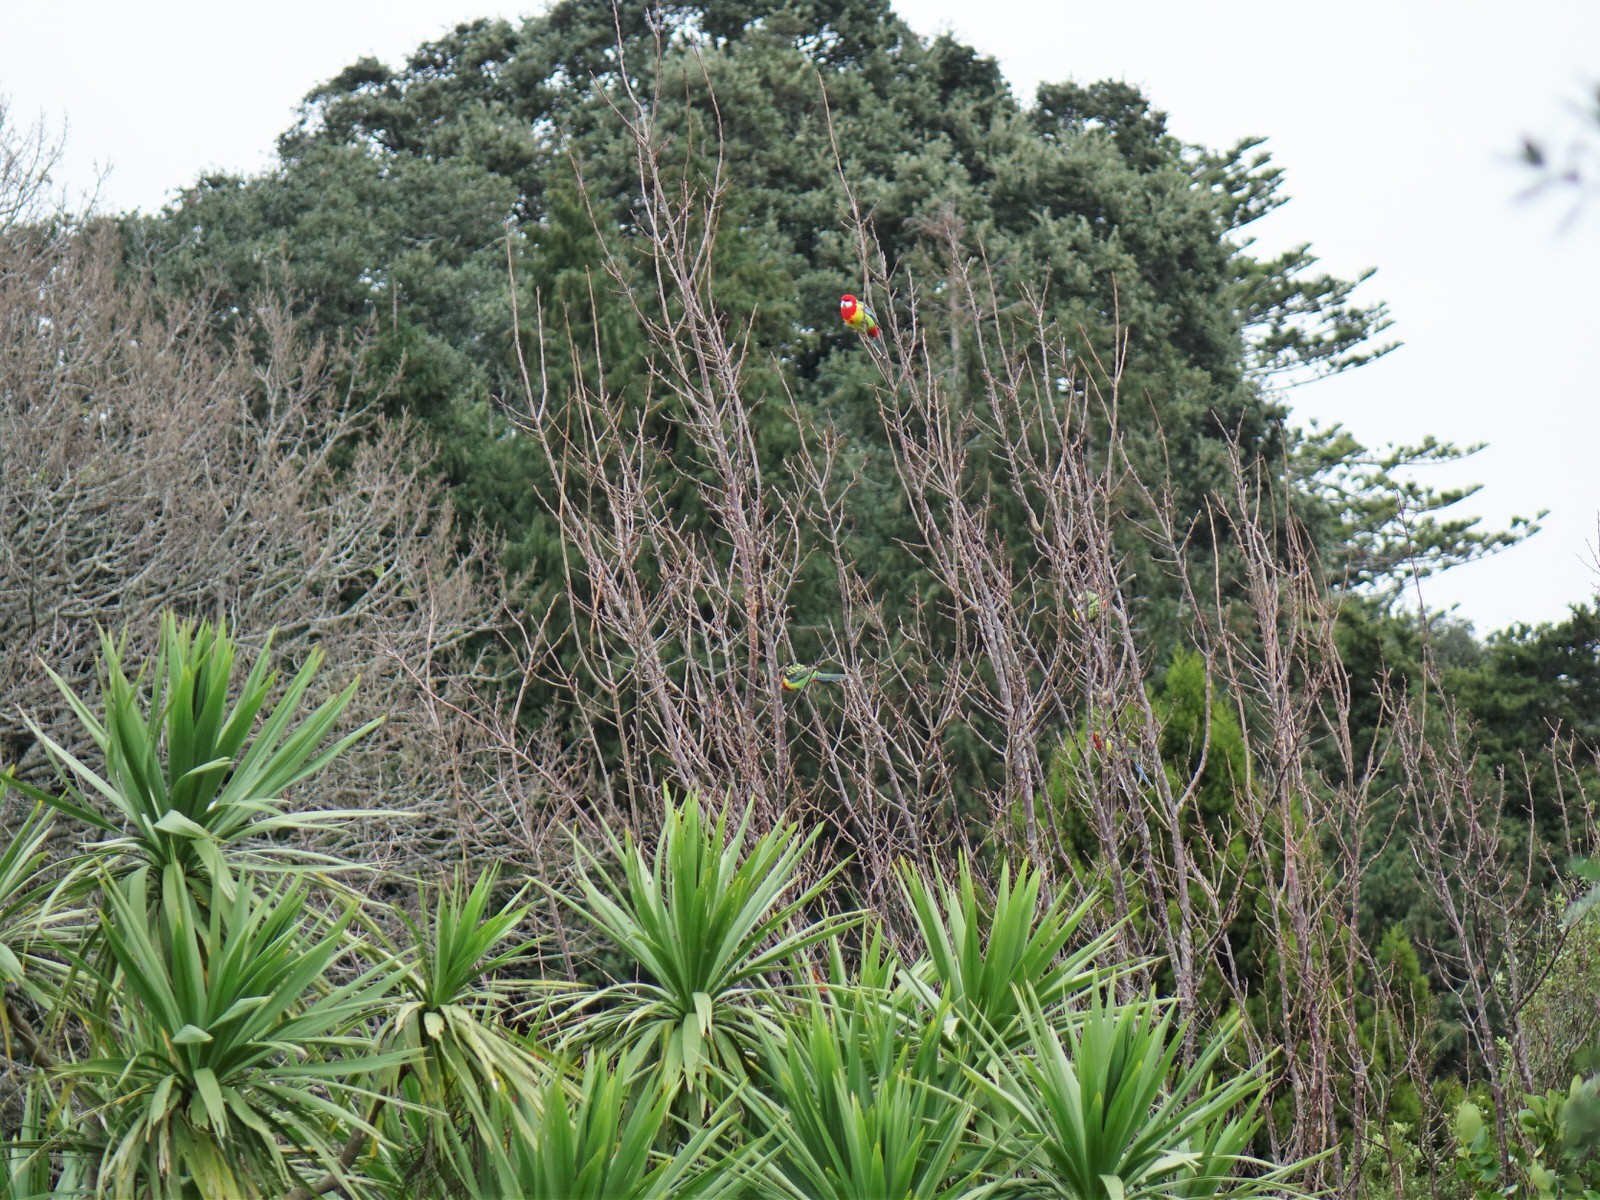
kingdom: Animalia
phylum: Chordata
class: Aves
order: Psittaciformes
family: Psittacidae
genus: Platycercus
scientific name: Platycercus eximius
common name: Eastern rosella
